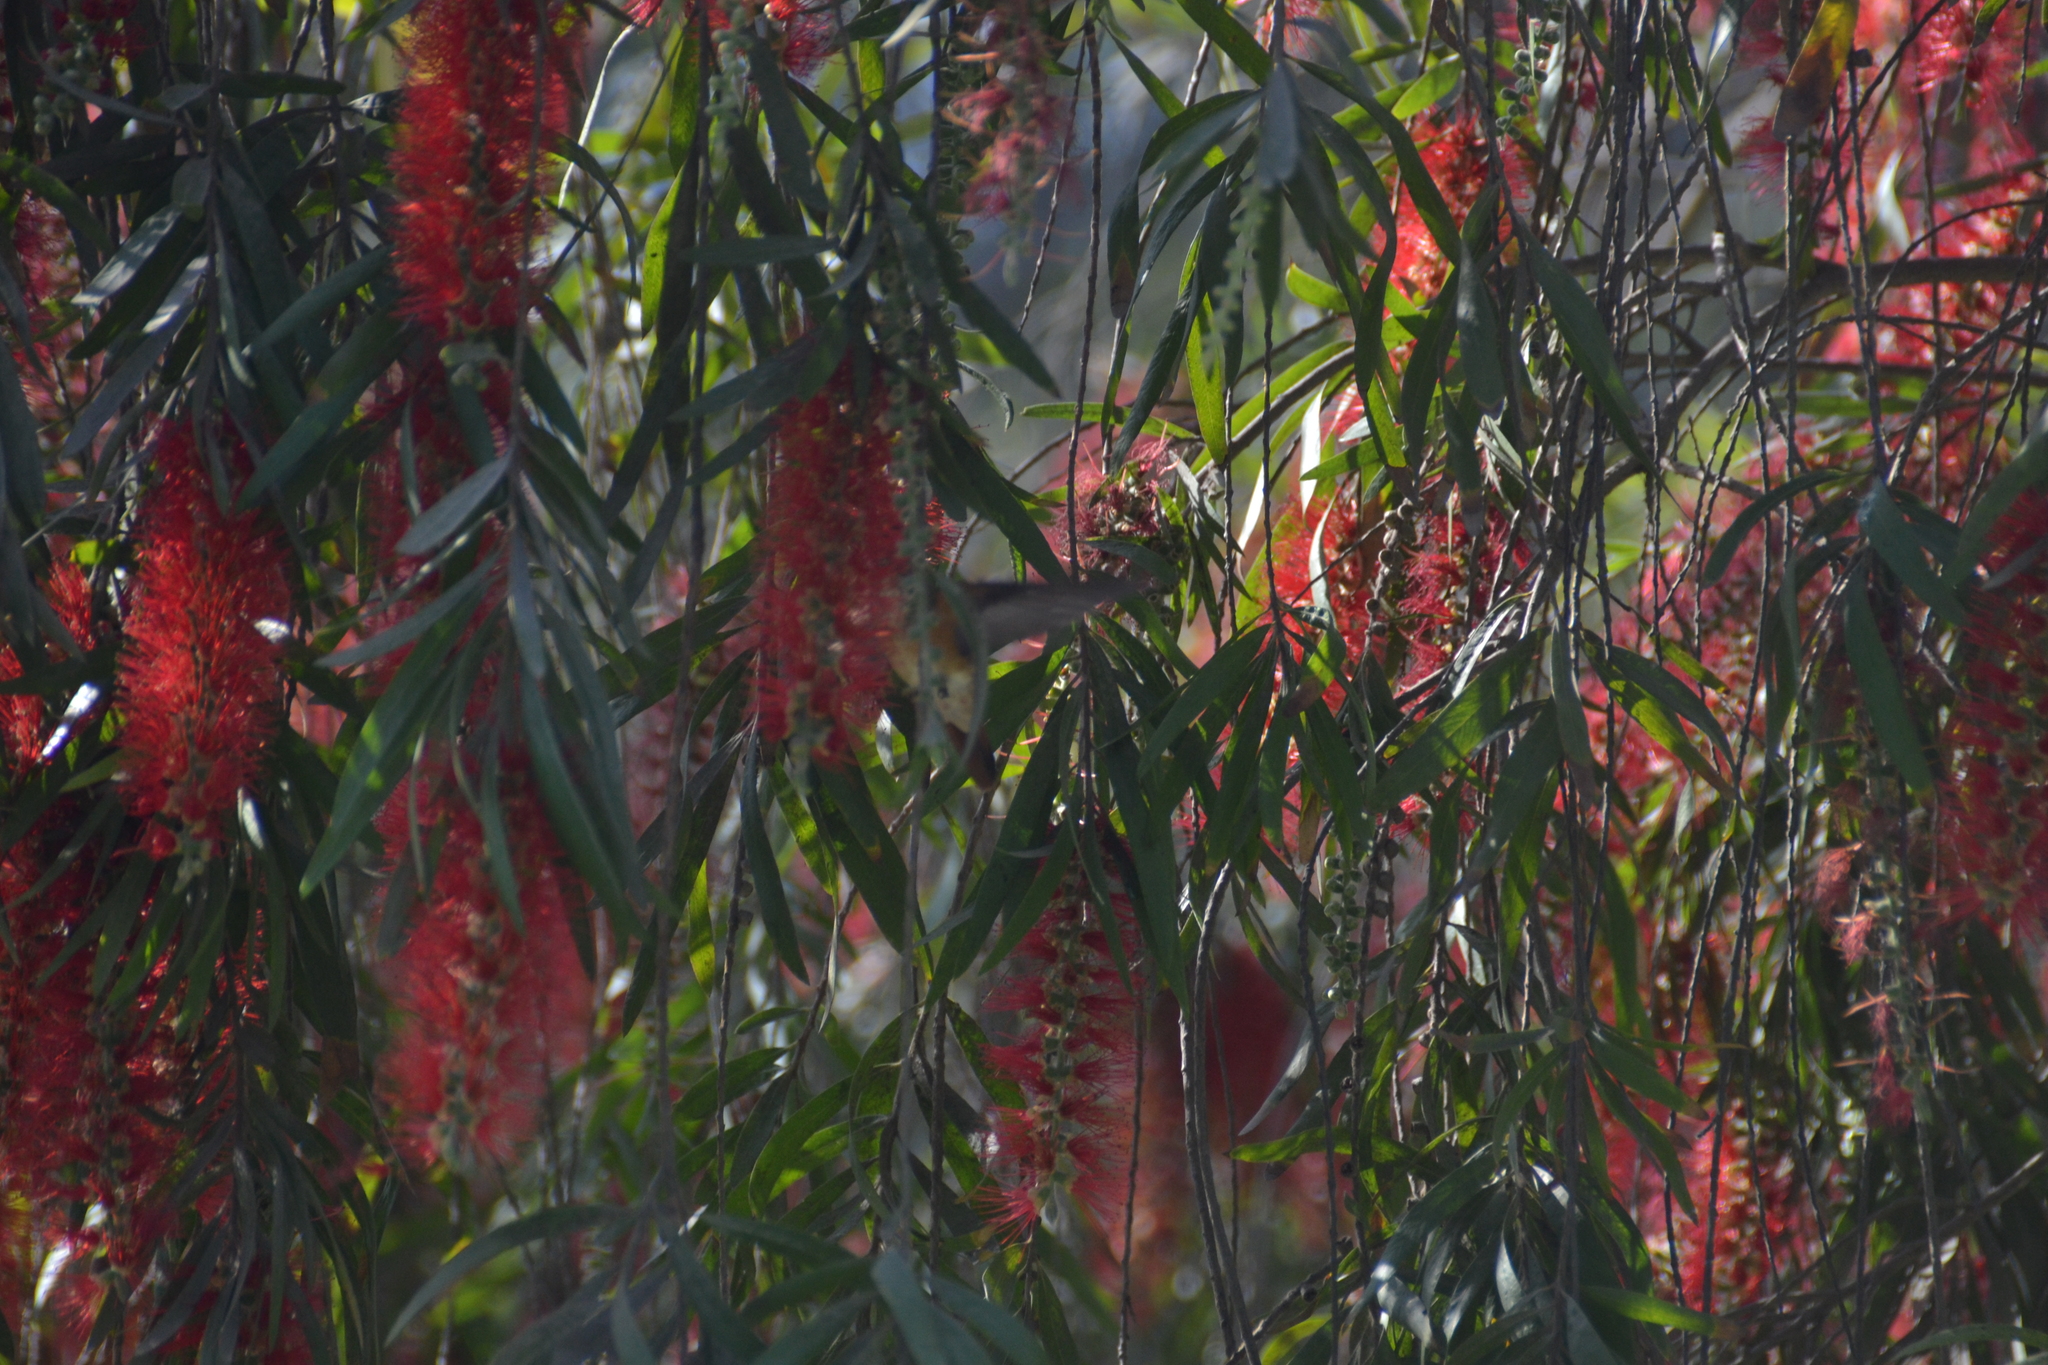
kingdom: Animalia
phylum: Chordata
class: Aves
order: Apodiformes
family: Trochilidae
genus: Amazilis
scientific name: Amazilis amazilia
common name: Amazilia hummingbird
